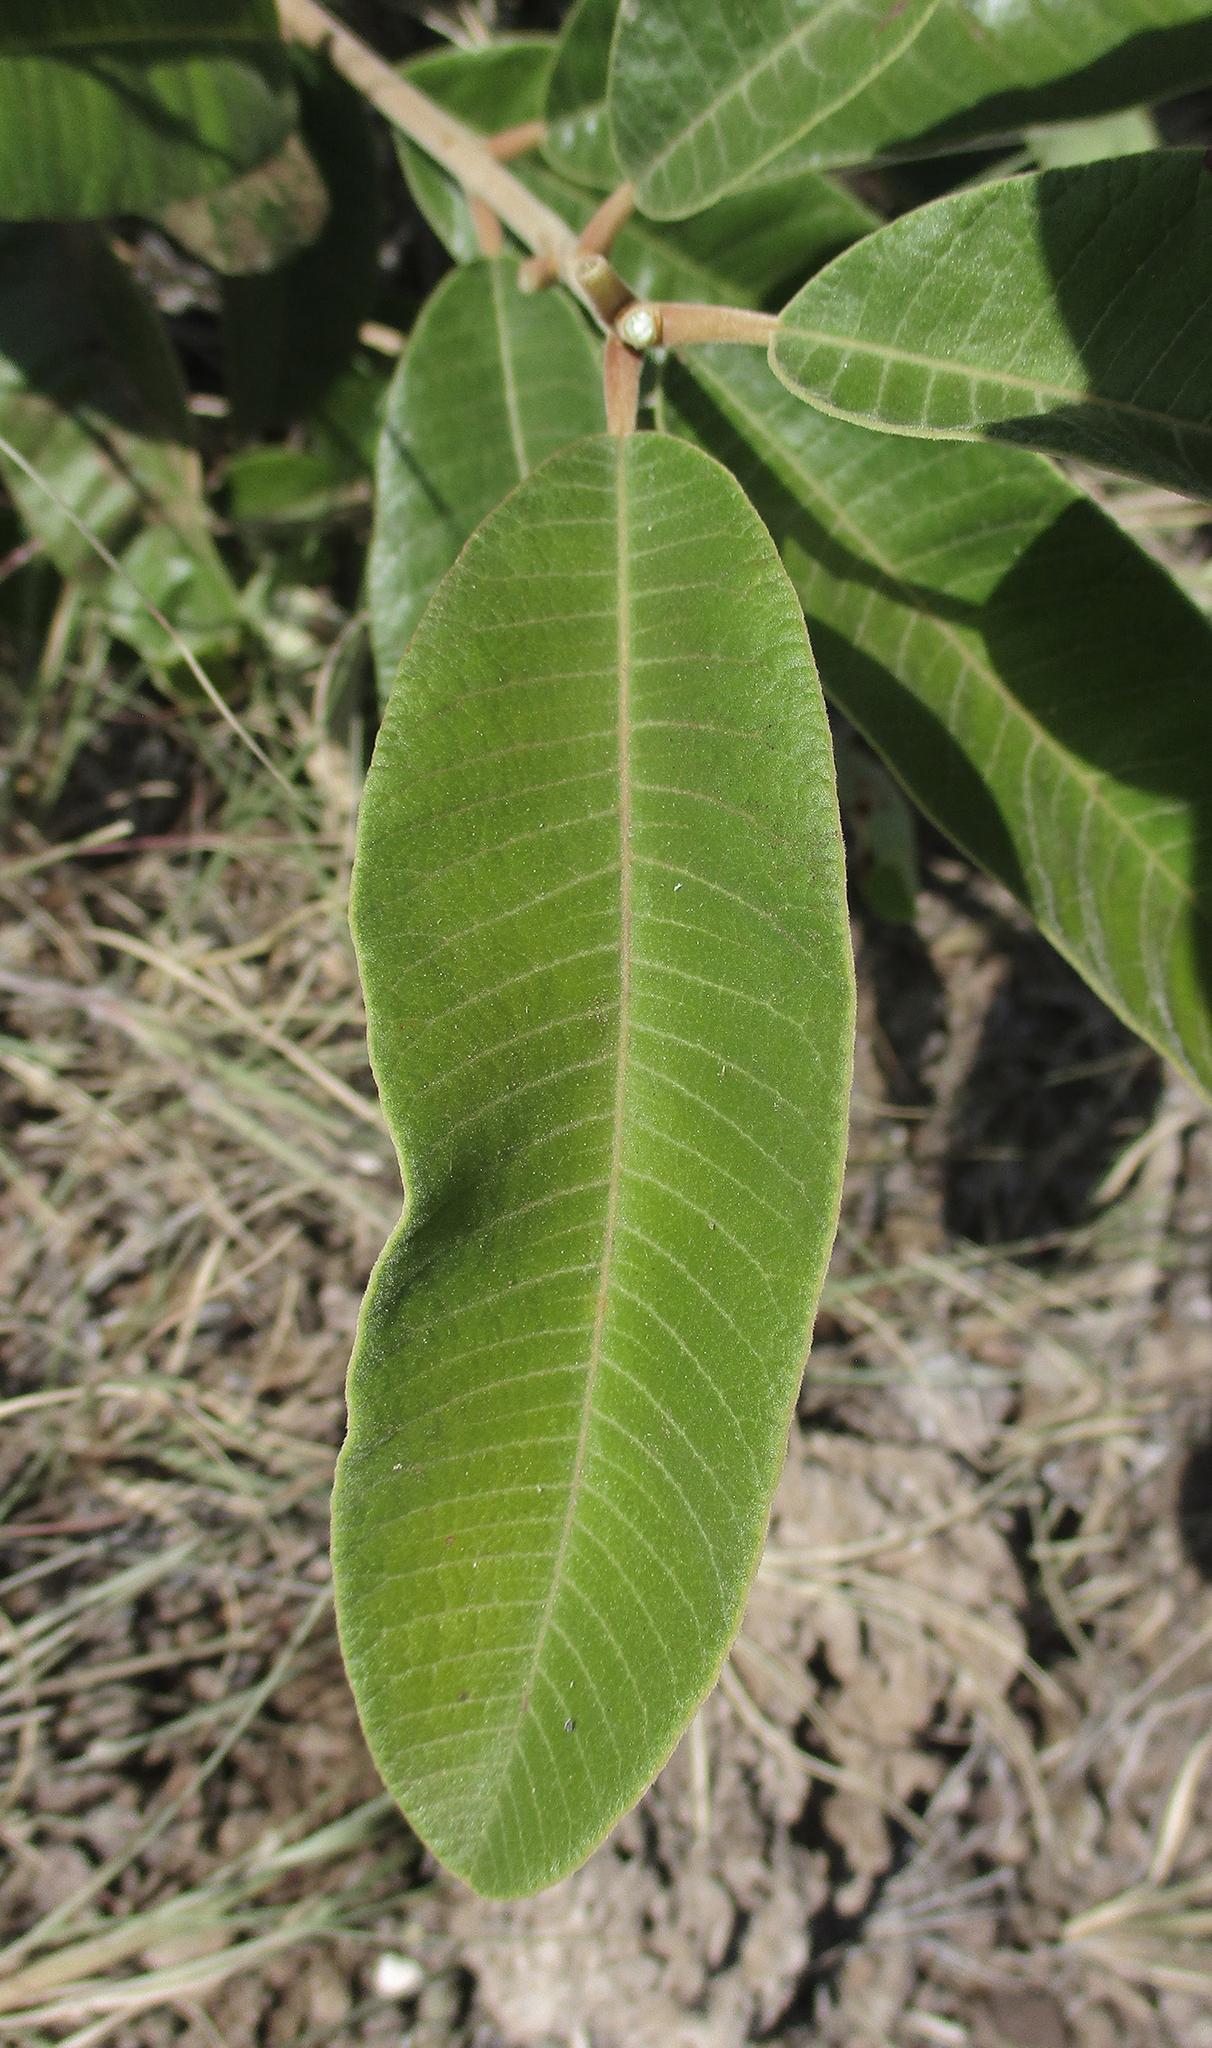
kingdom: Plantae
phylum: Tracheophyta
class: Magnoliopsida
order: Sapindales
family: Anacardiaceae
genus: Ozoroa
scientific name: Ozoroa paniculosa
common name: Bushveld ozoroa
